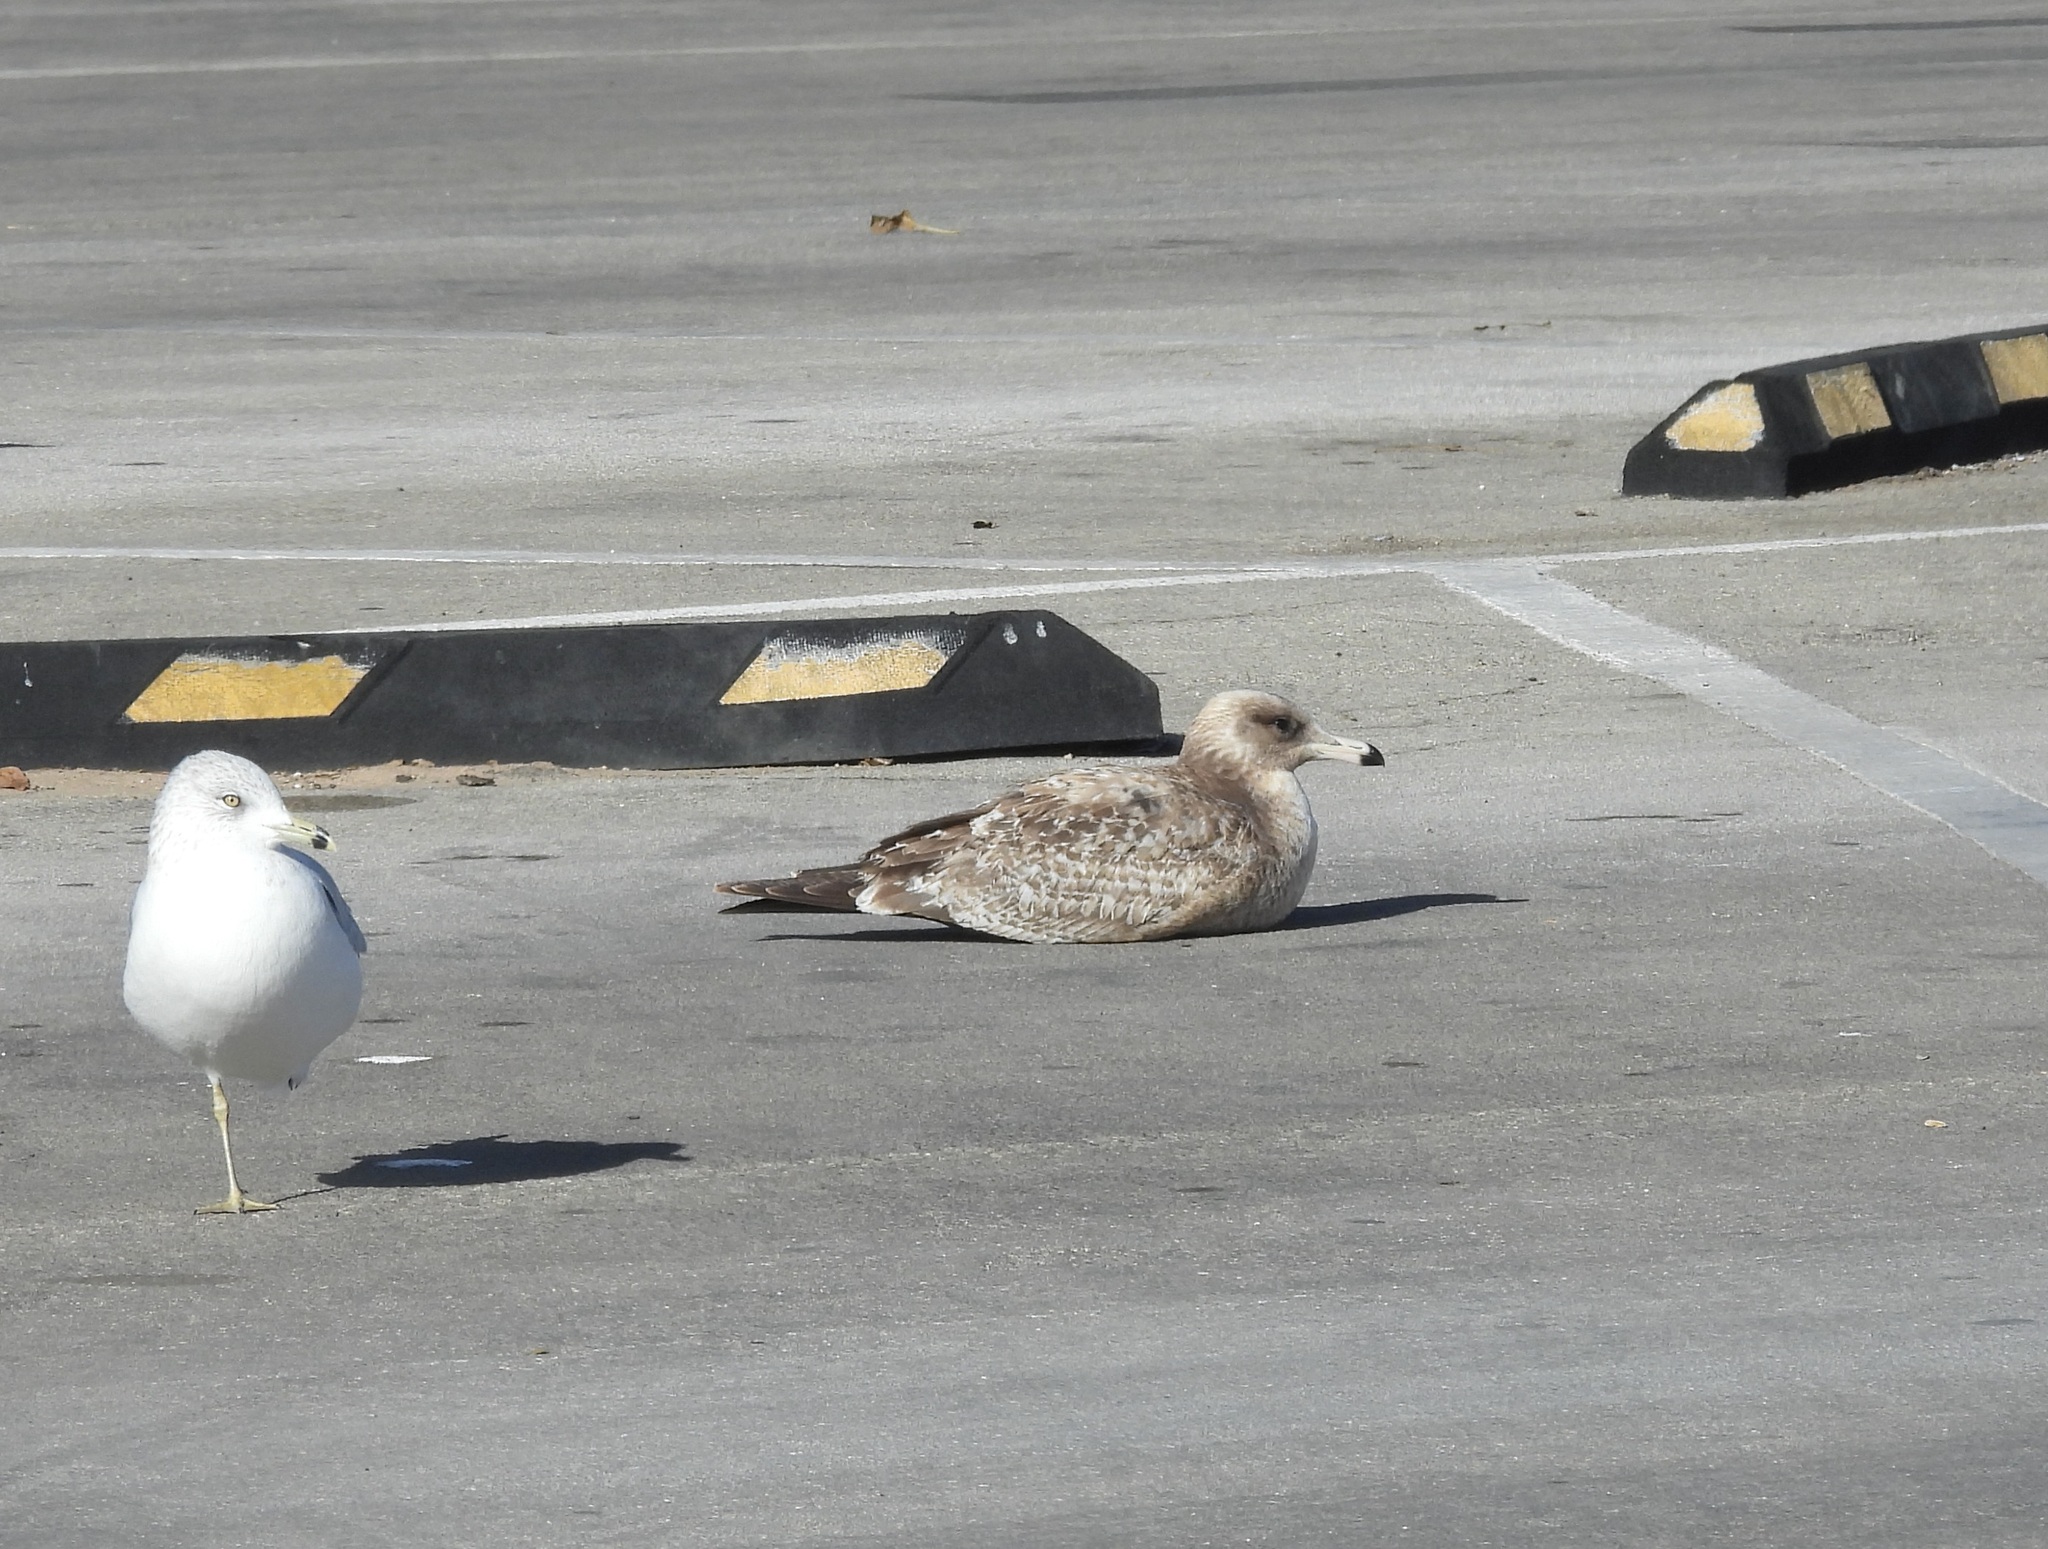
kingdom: Animalia
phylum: Chordata
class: Aves
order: Charadriiformes
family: Laridae
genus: Larus
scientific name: Larus californicus
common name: California gull
